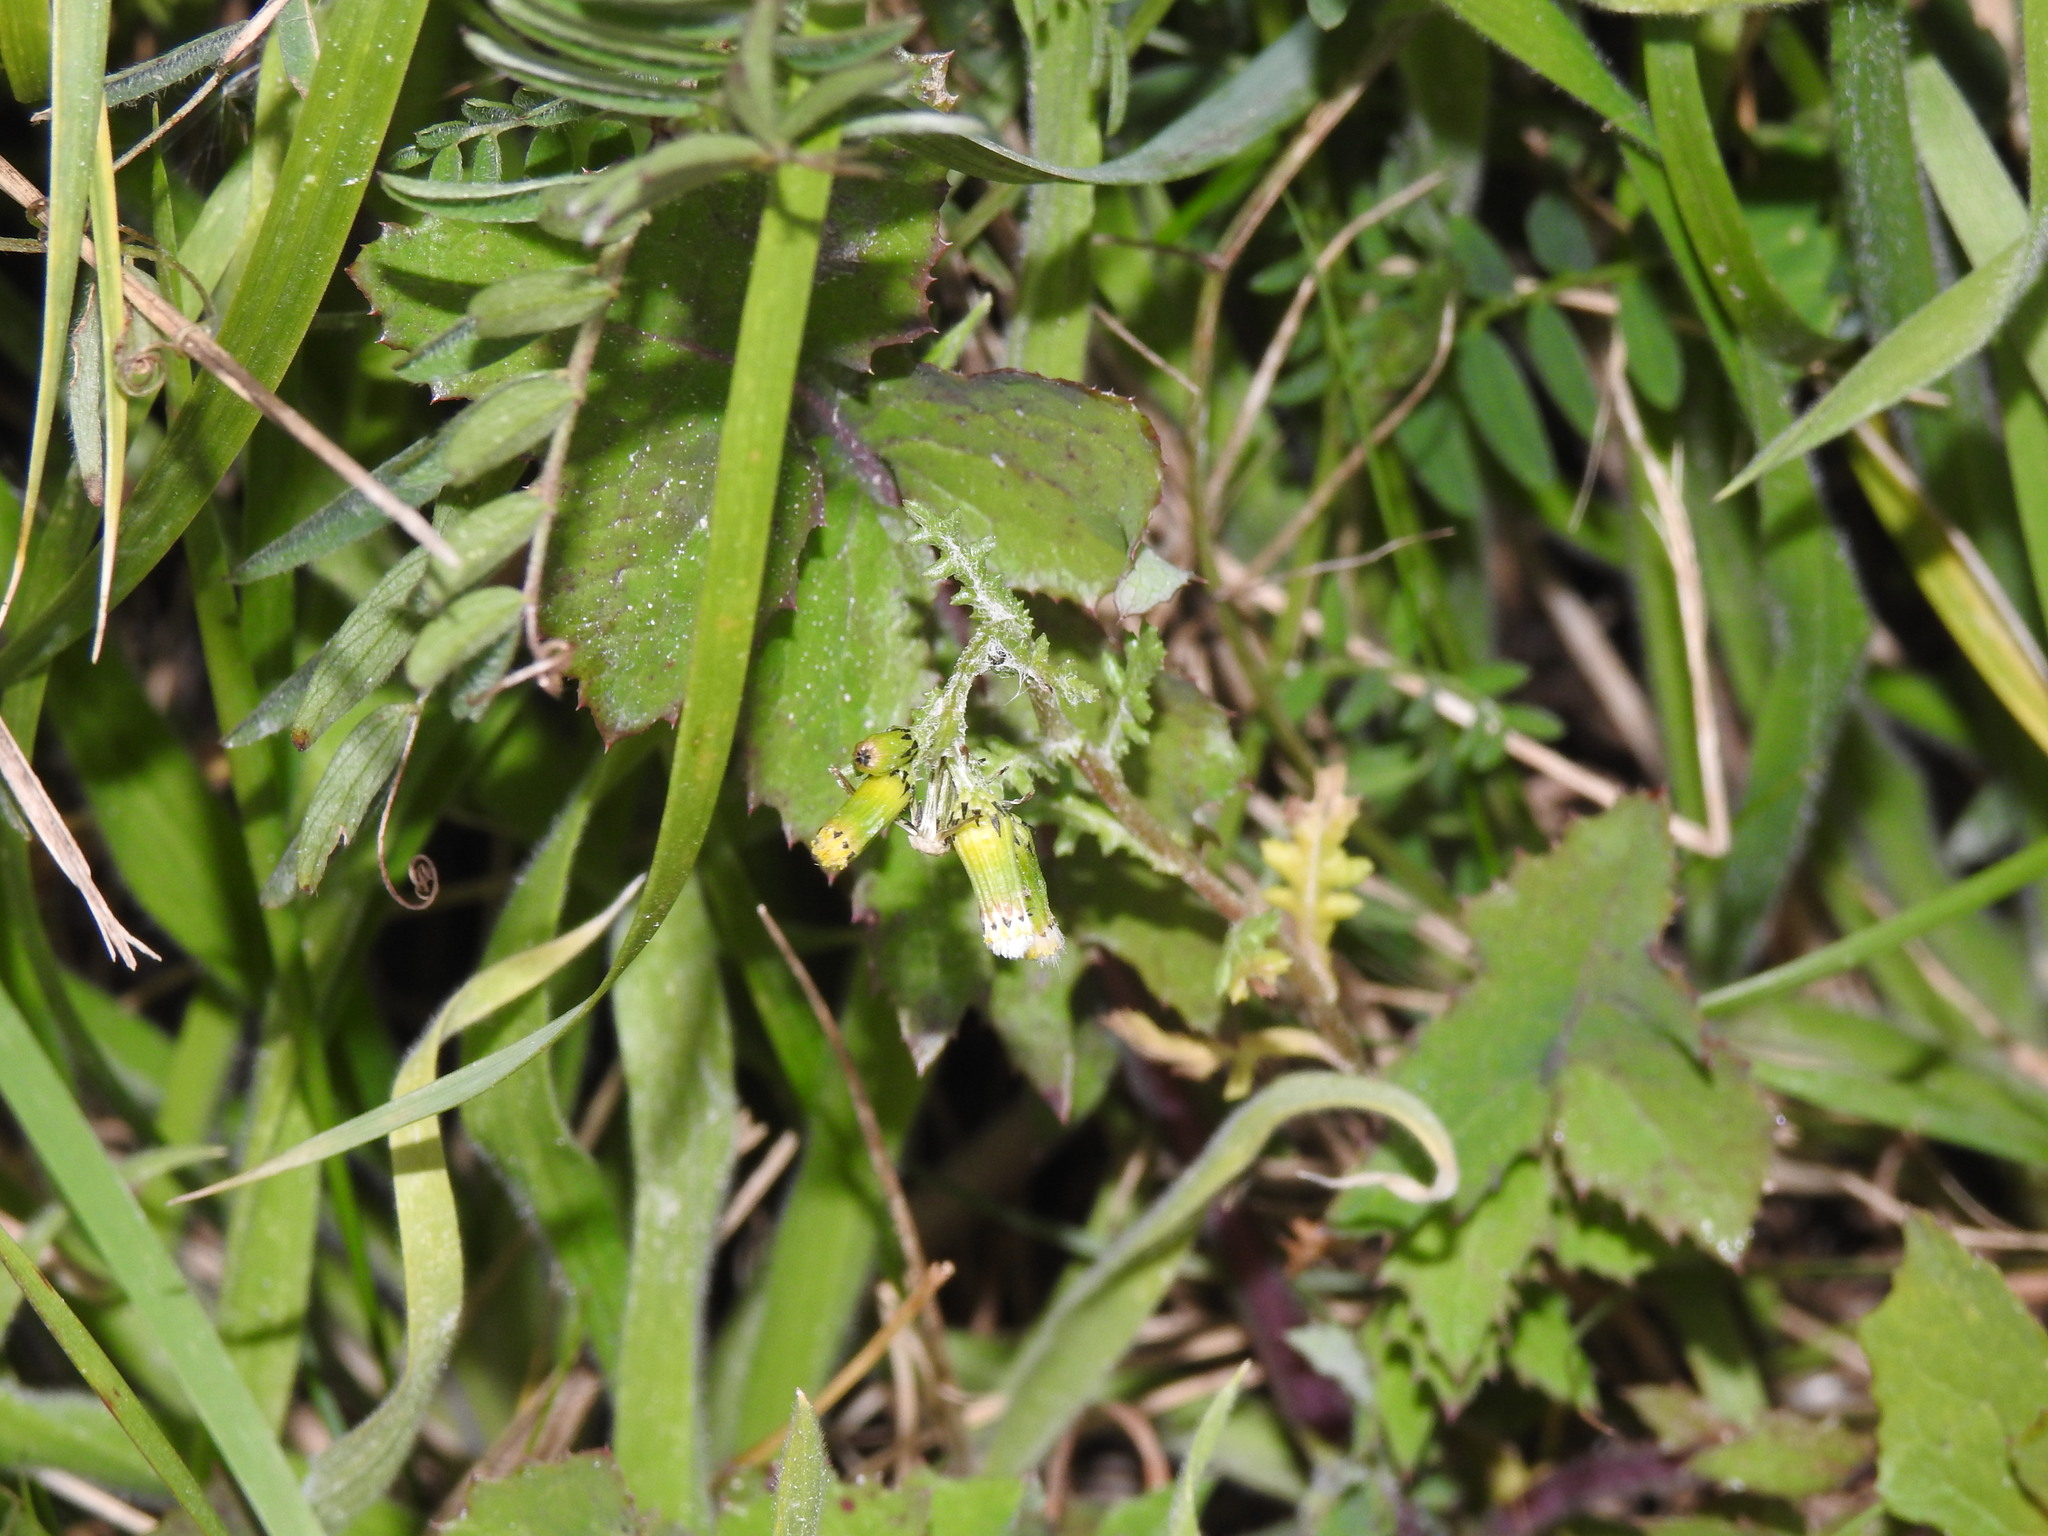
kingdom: Plantae
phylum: Tracheophyta
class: Magnoliopsida
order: Asterales
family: Asteraceae
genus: Senecio
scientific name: Senecio vulgaris
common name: Old-man-in-the-spring
